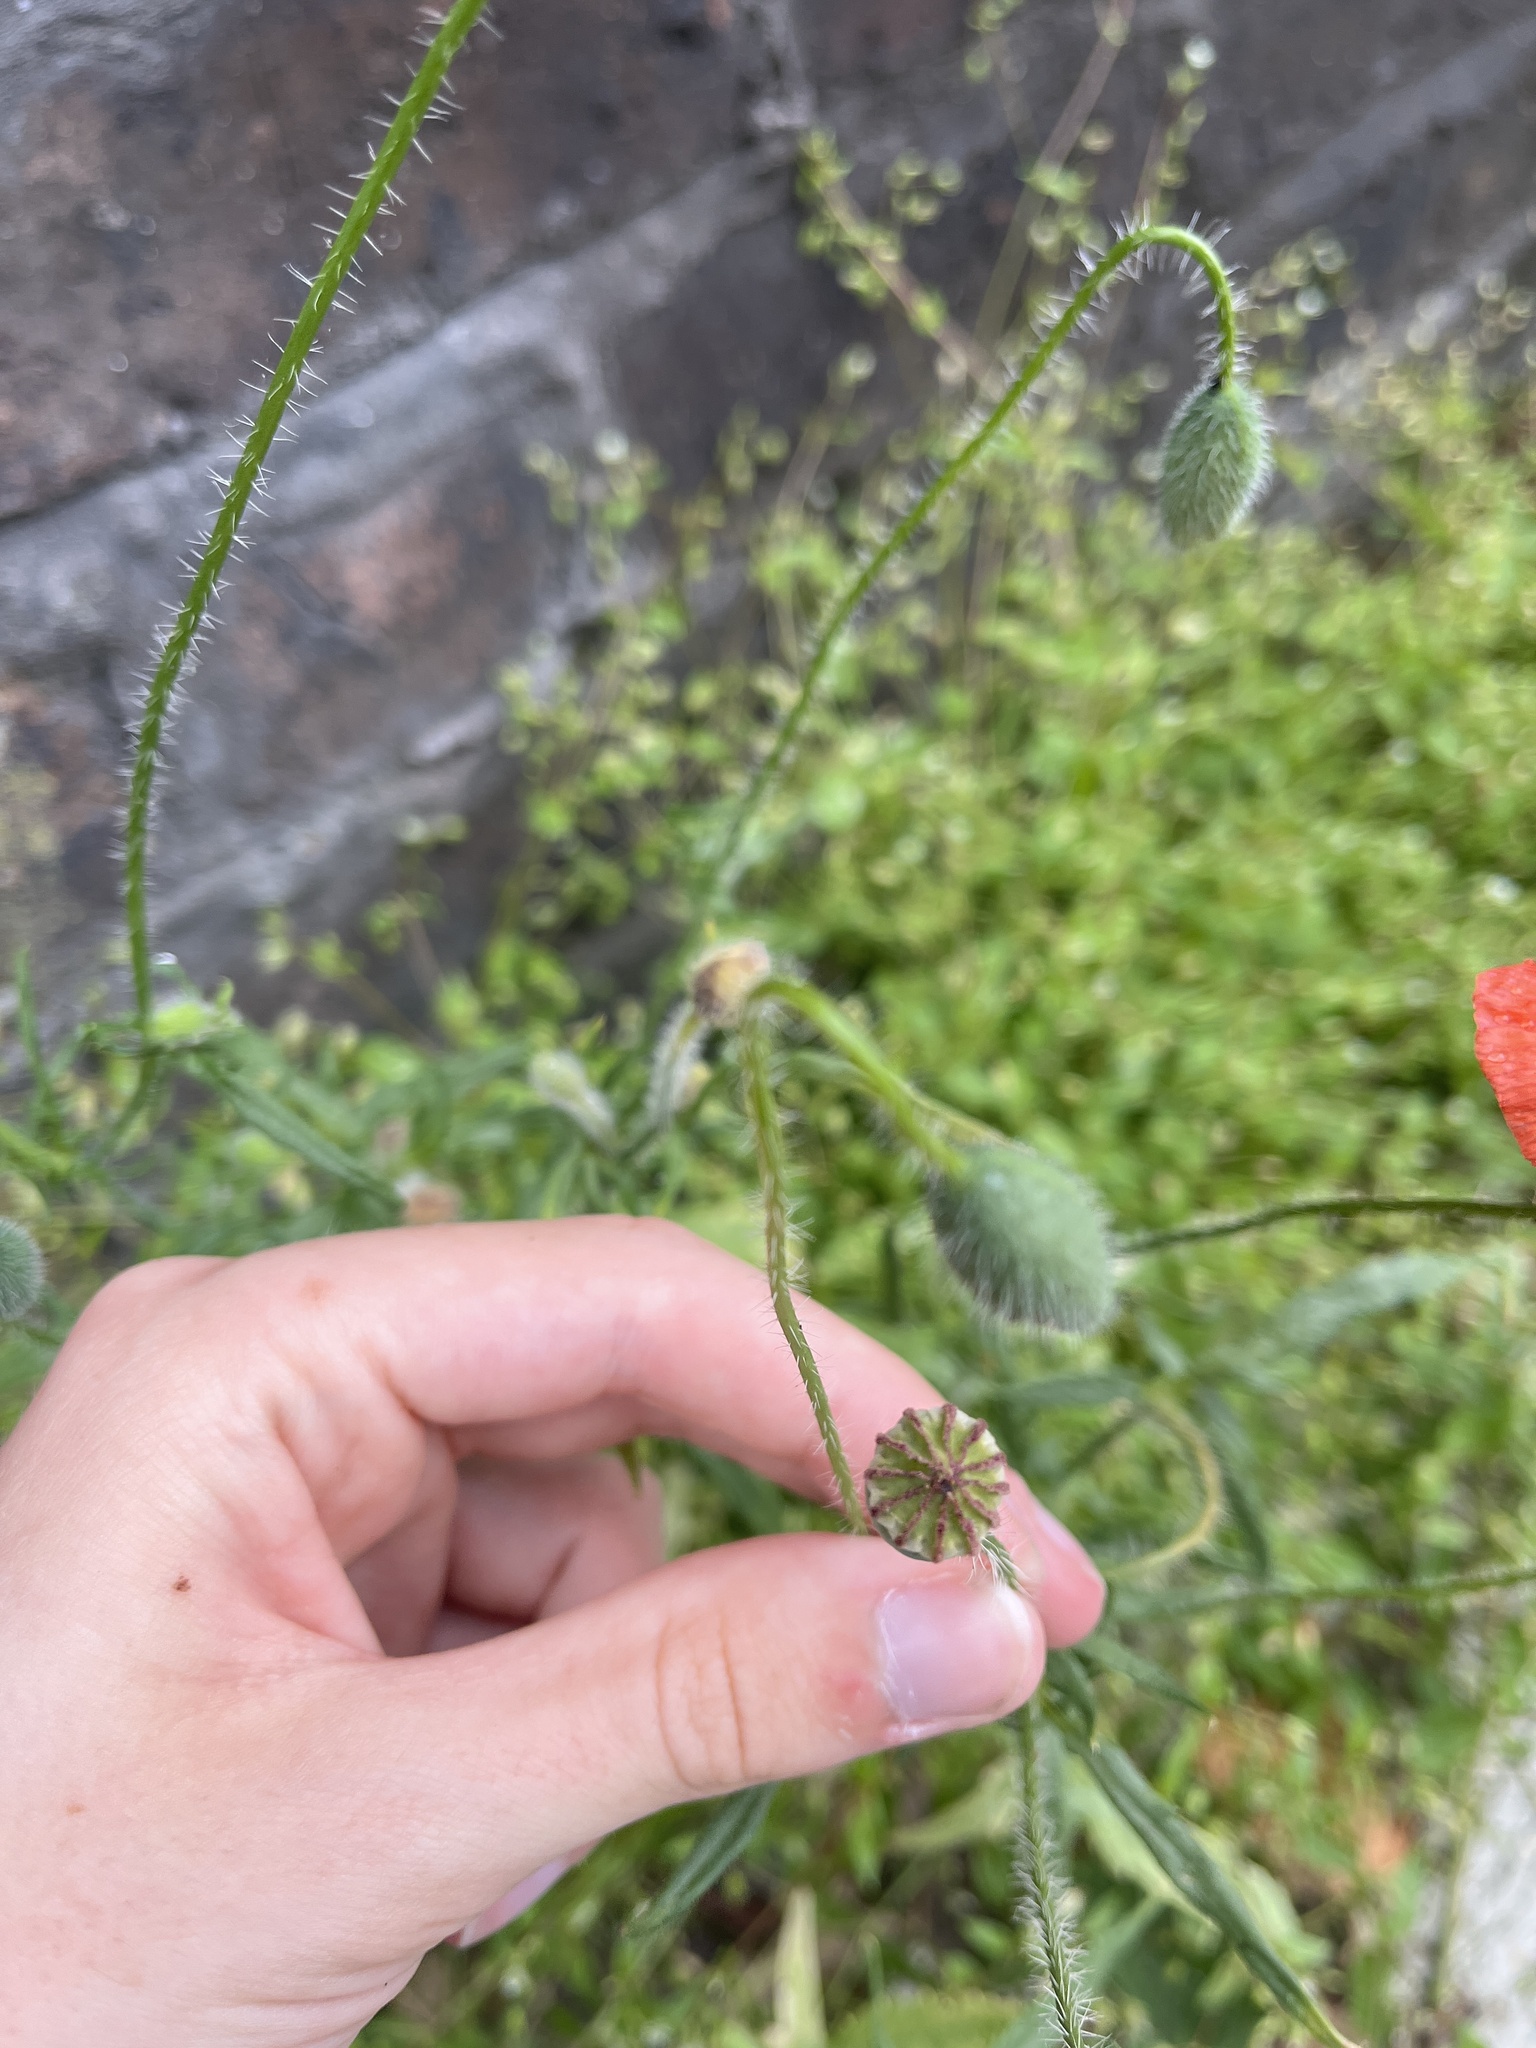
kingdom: Plantae
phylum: Tracheophyta
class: Magnoliopsida
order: Ranunculales
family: Papaveraceae
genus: Papaver
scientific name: Papaver rhoeas
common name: Corn poppy
